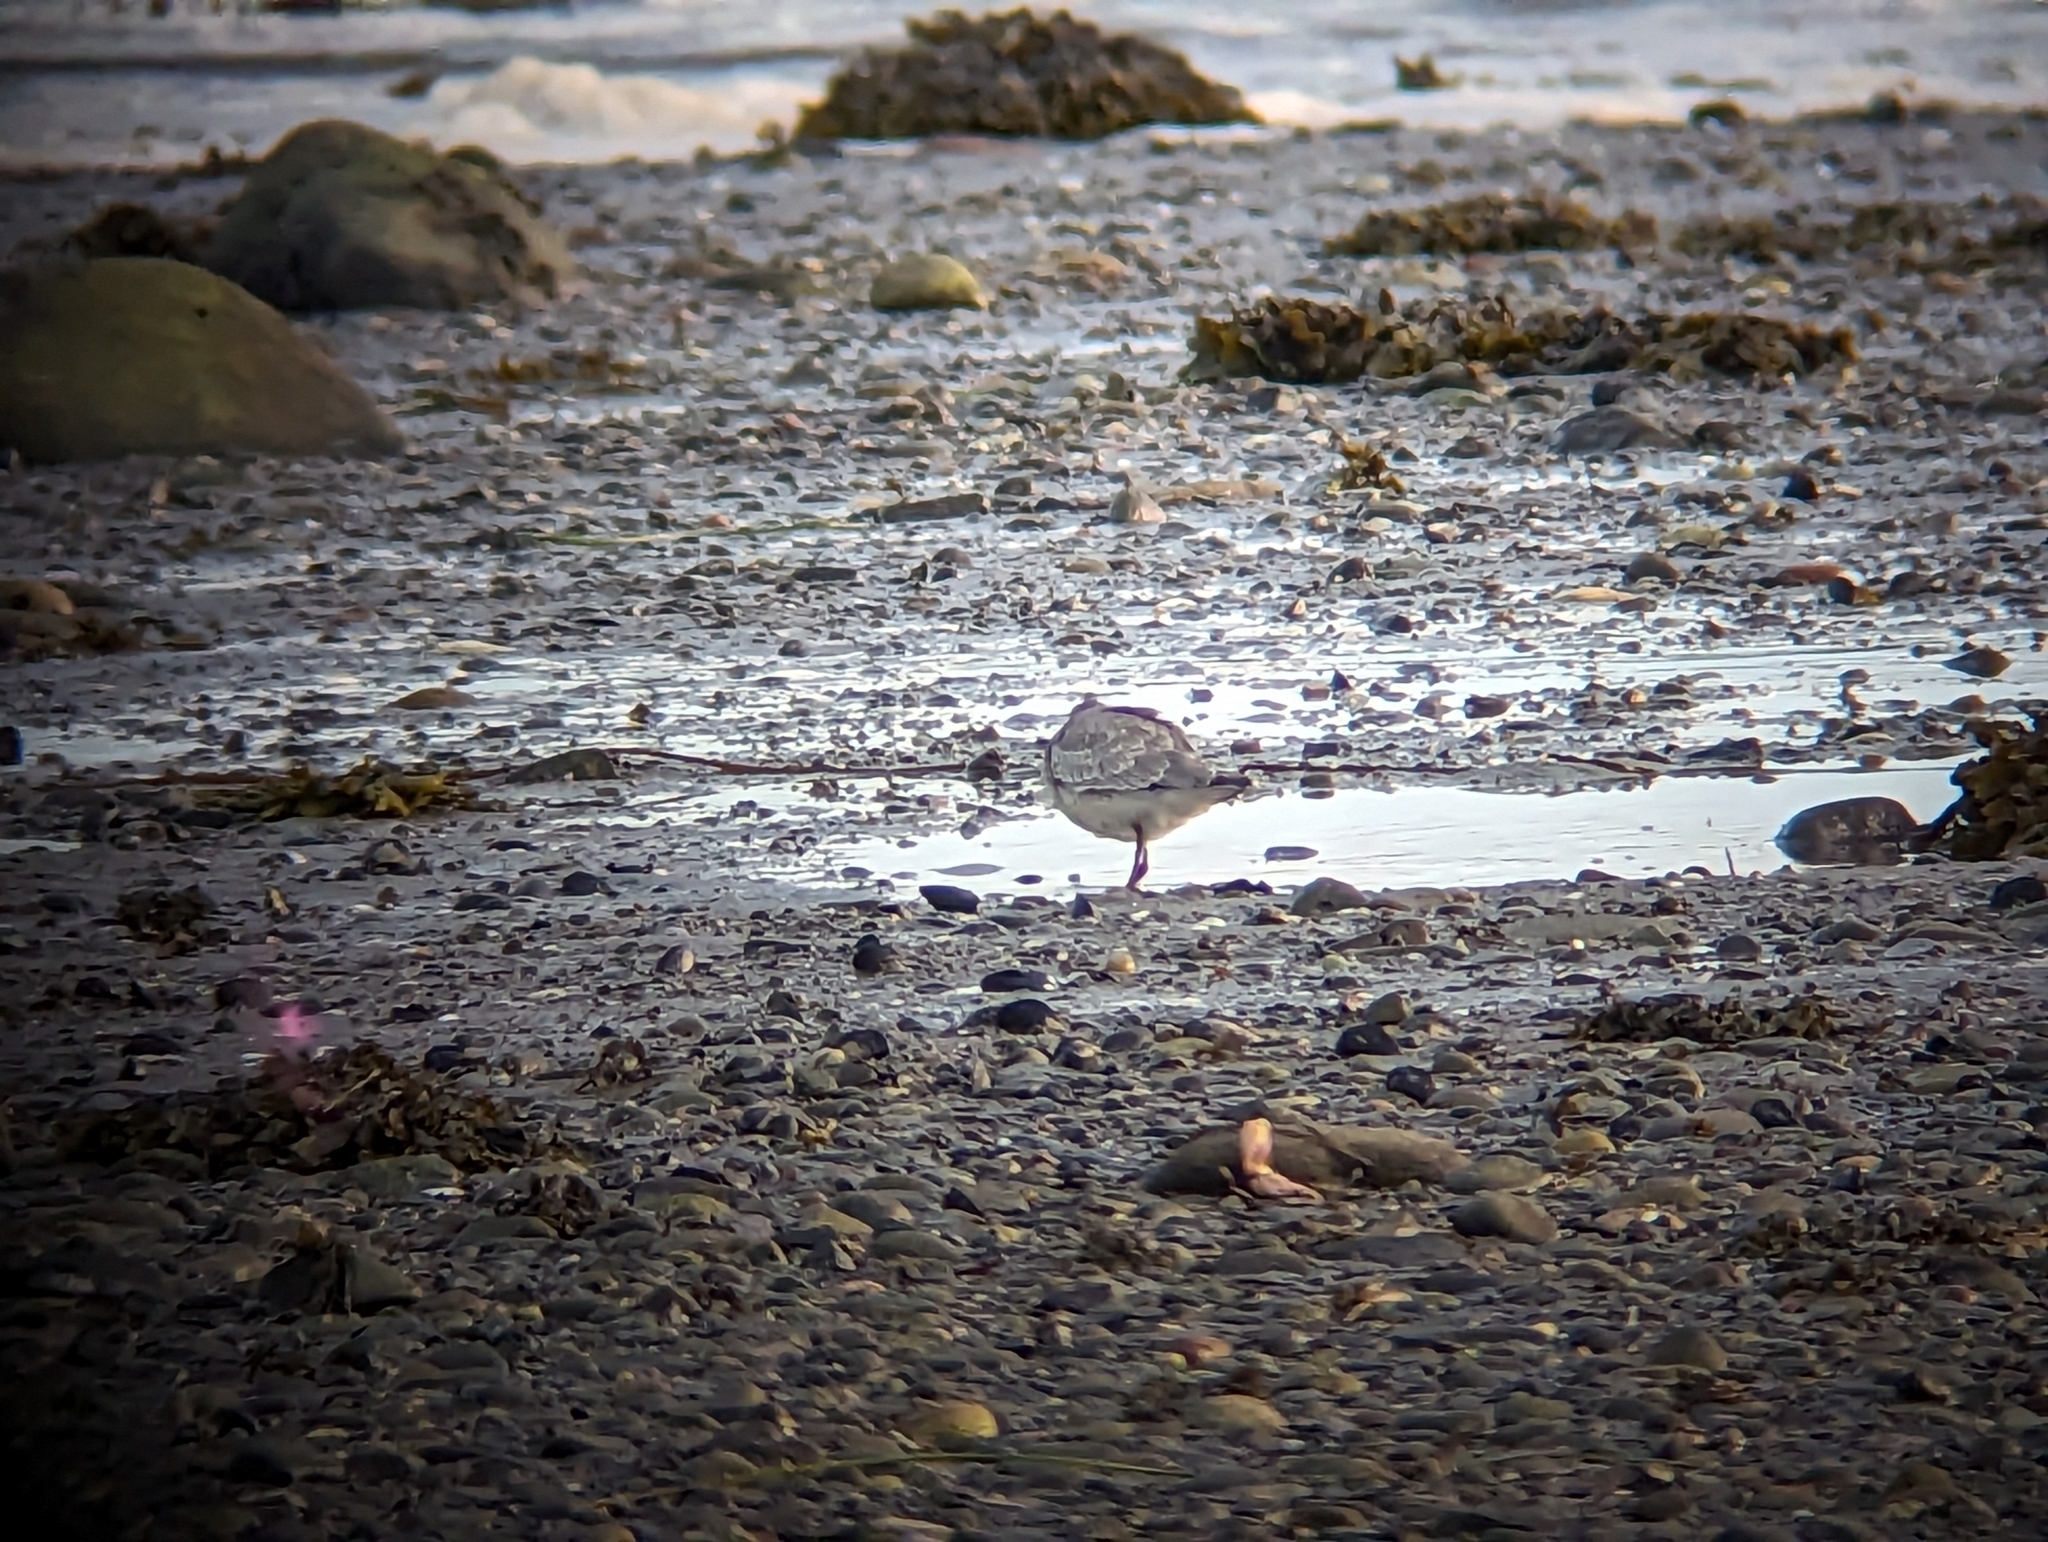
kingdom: Animalia
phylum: Chordata
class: Aves
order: Charadriiformes
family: Scolopacidae
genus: Calidris
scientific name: Calidris canutus
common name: Red knot
